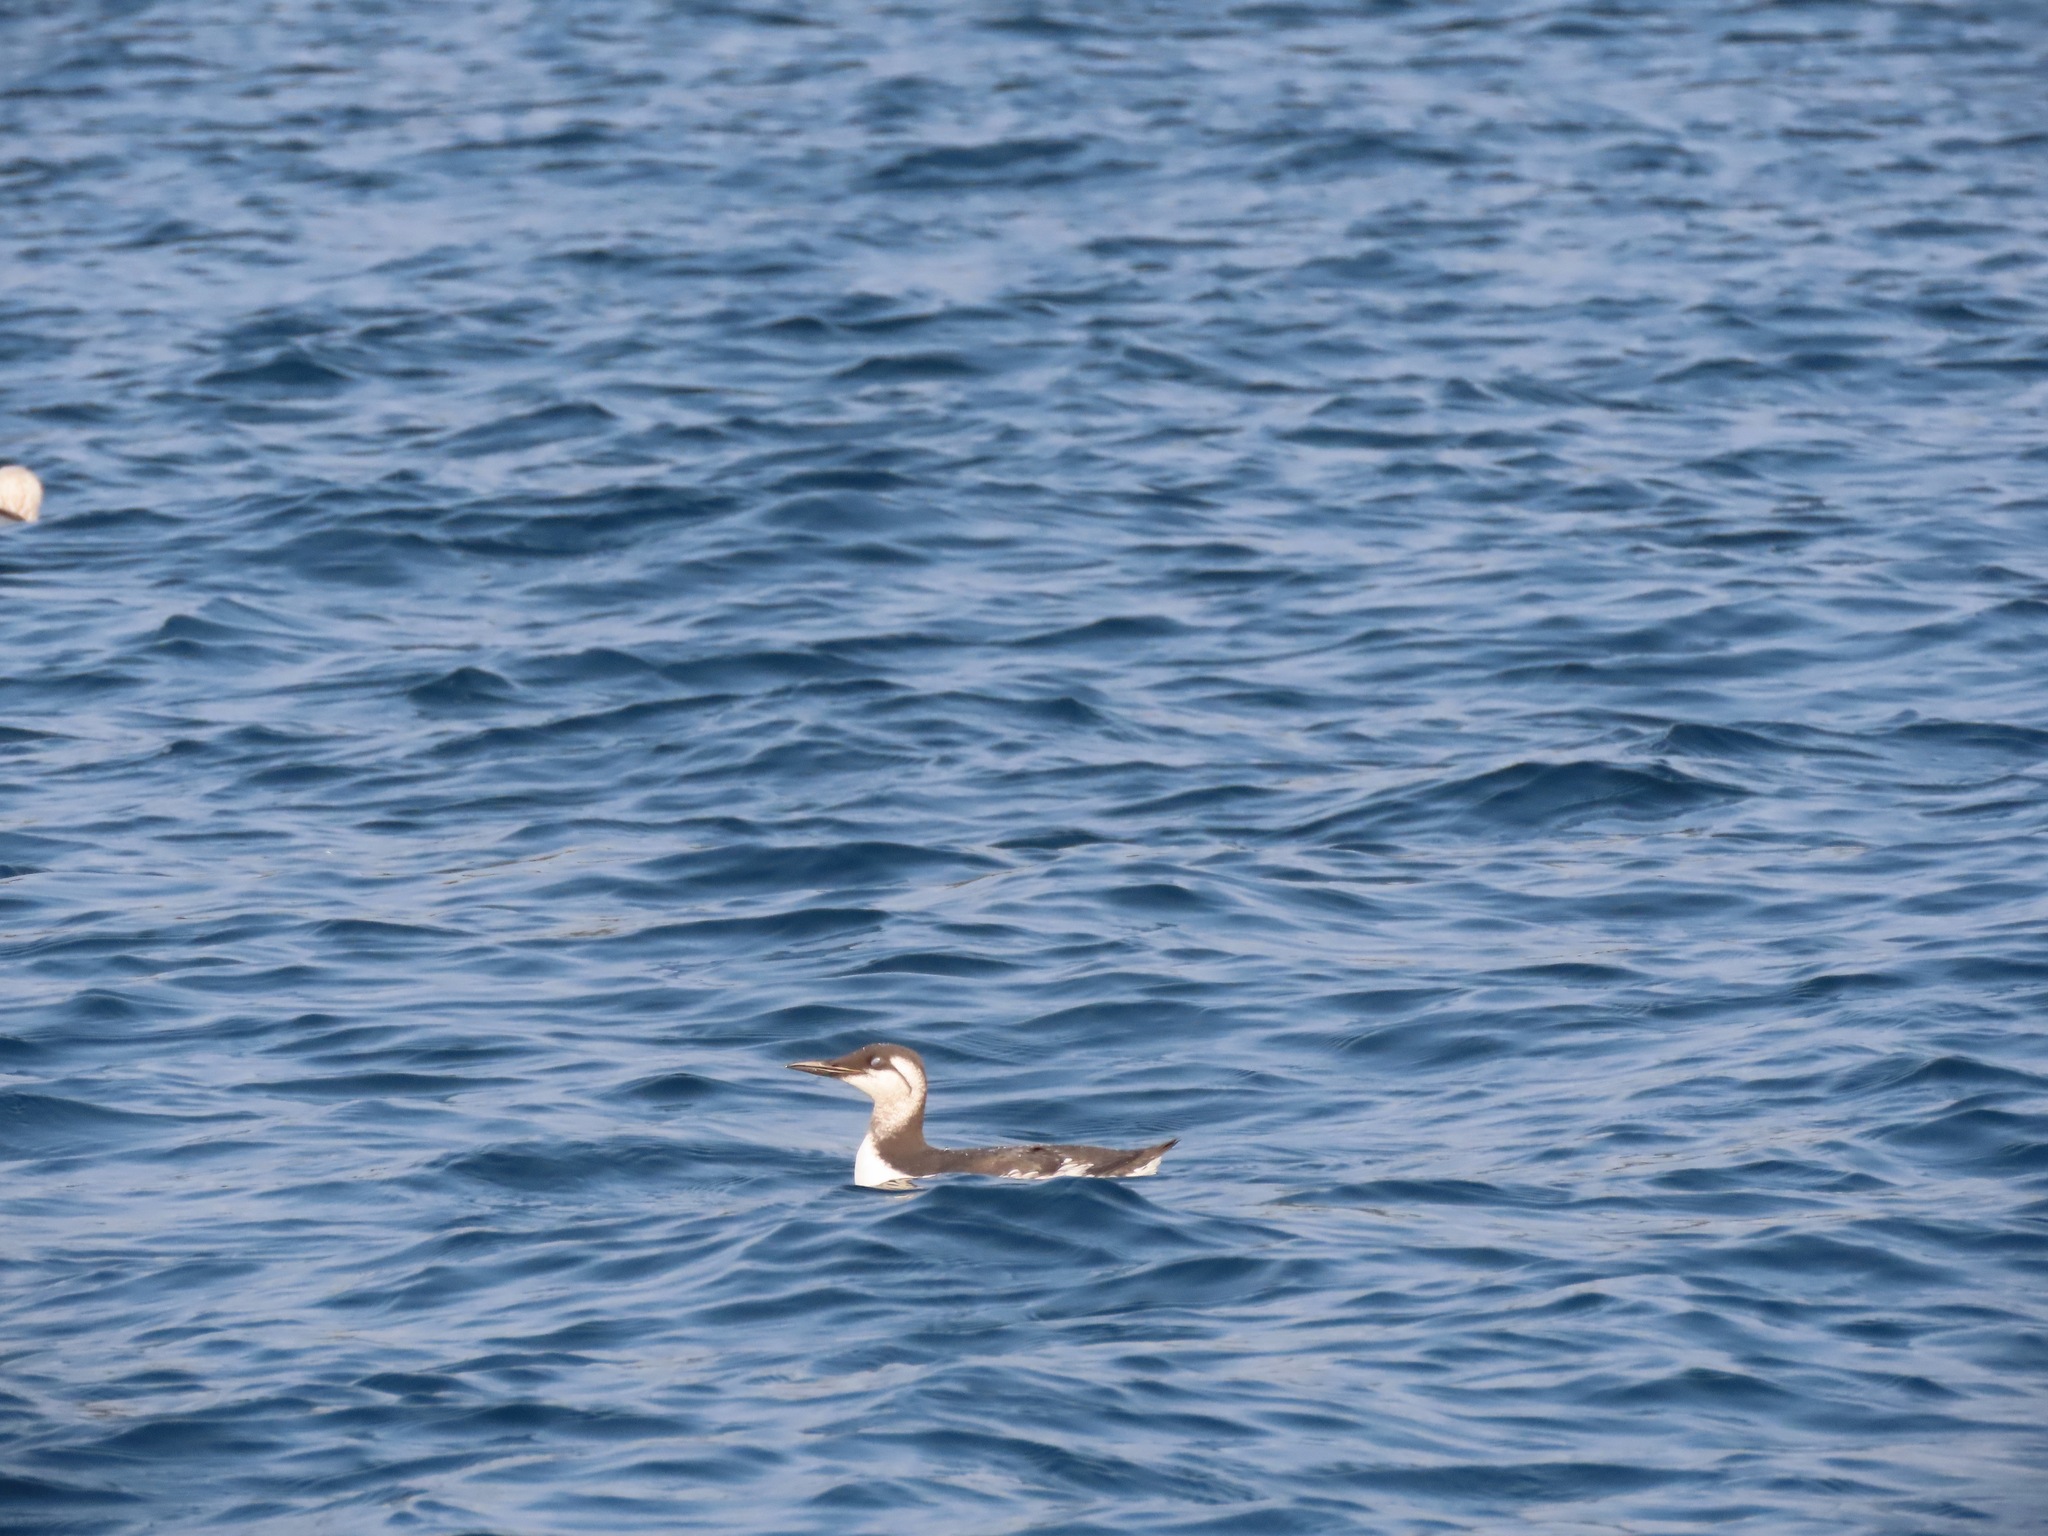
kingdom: Animalia
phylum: Chordata
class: Aves
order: Charadriiformes
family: Alcidae
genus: Uria
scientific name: Uria aalge
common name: Common murre
